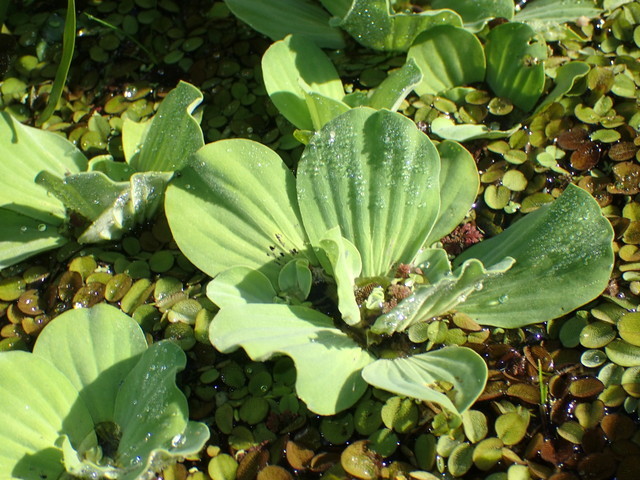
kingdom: Plantae
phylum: Tracheophyta
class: Liliopsida
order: Alismatales
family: Araceae
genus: Pistia
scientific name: Pistia stratiotes
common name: Water lettuce
